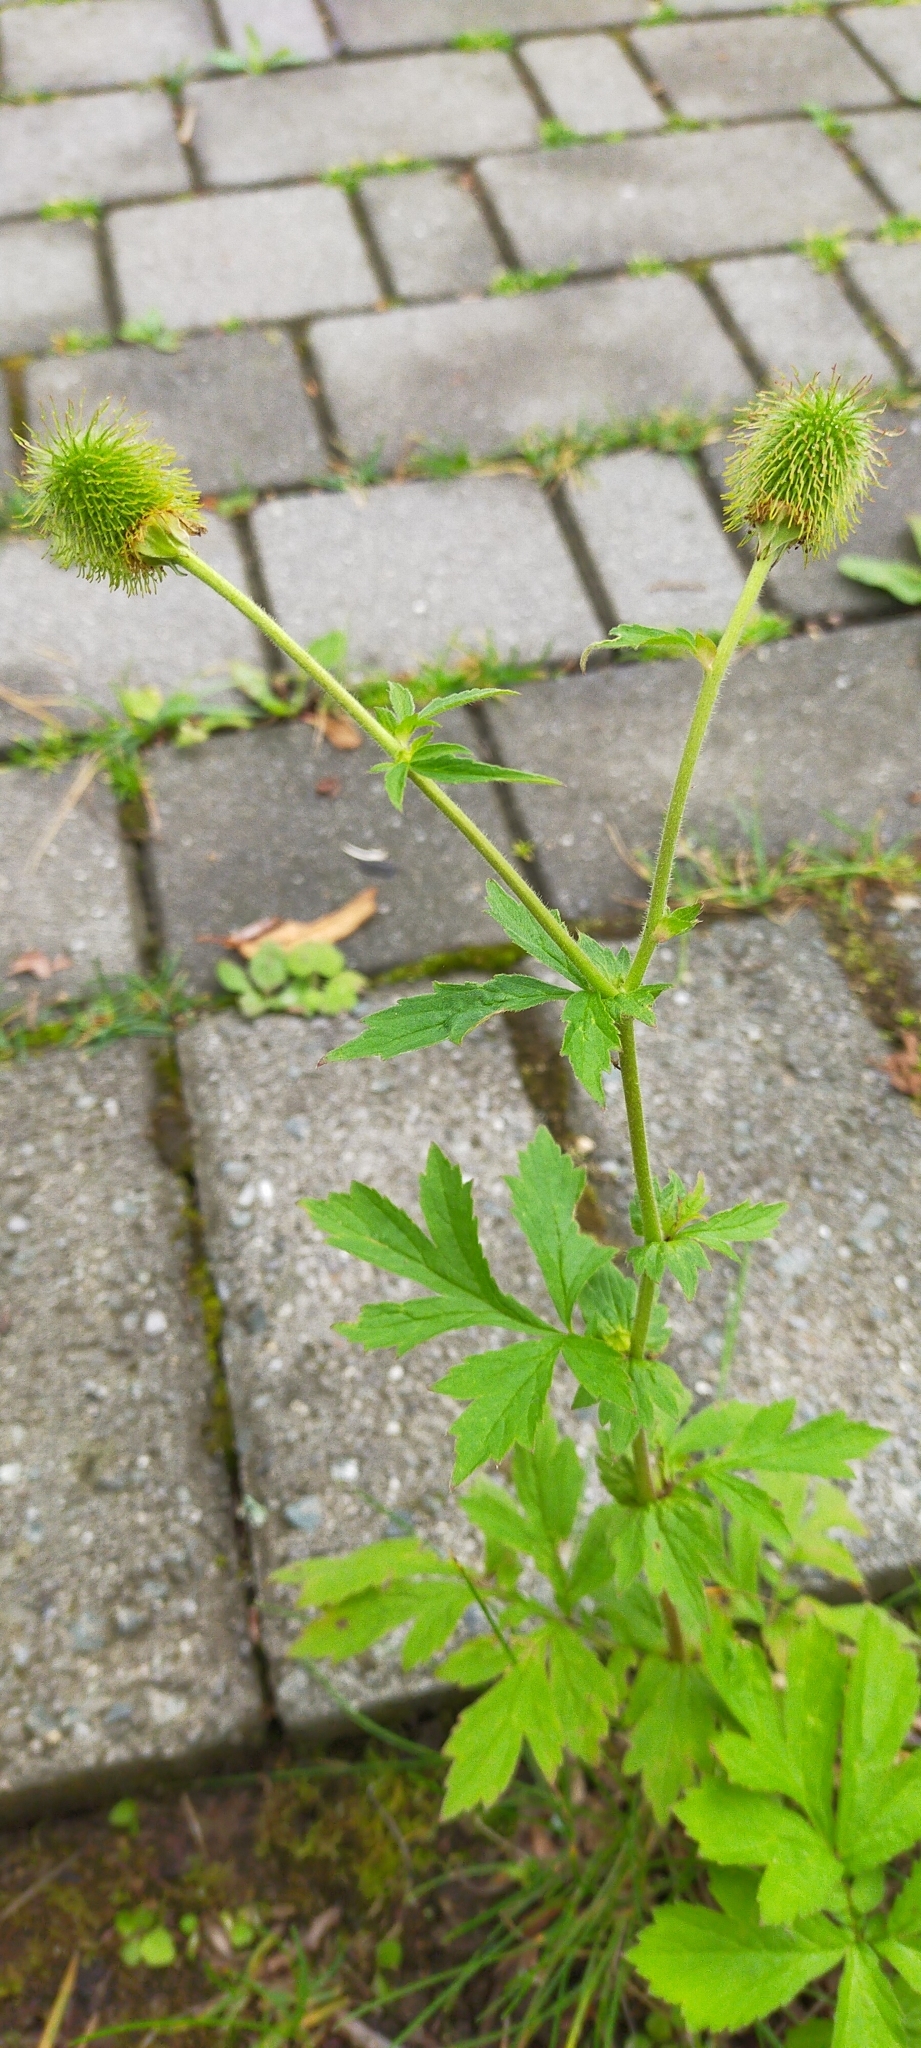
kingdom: Plantae
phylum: Tracheophyta
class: Magnoliopsida
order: Rosales
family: Rosaceae
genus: Geum
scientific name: Geum aleppicum
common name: Yellow avens
